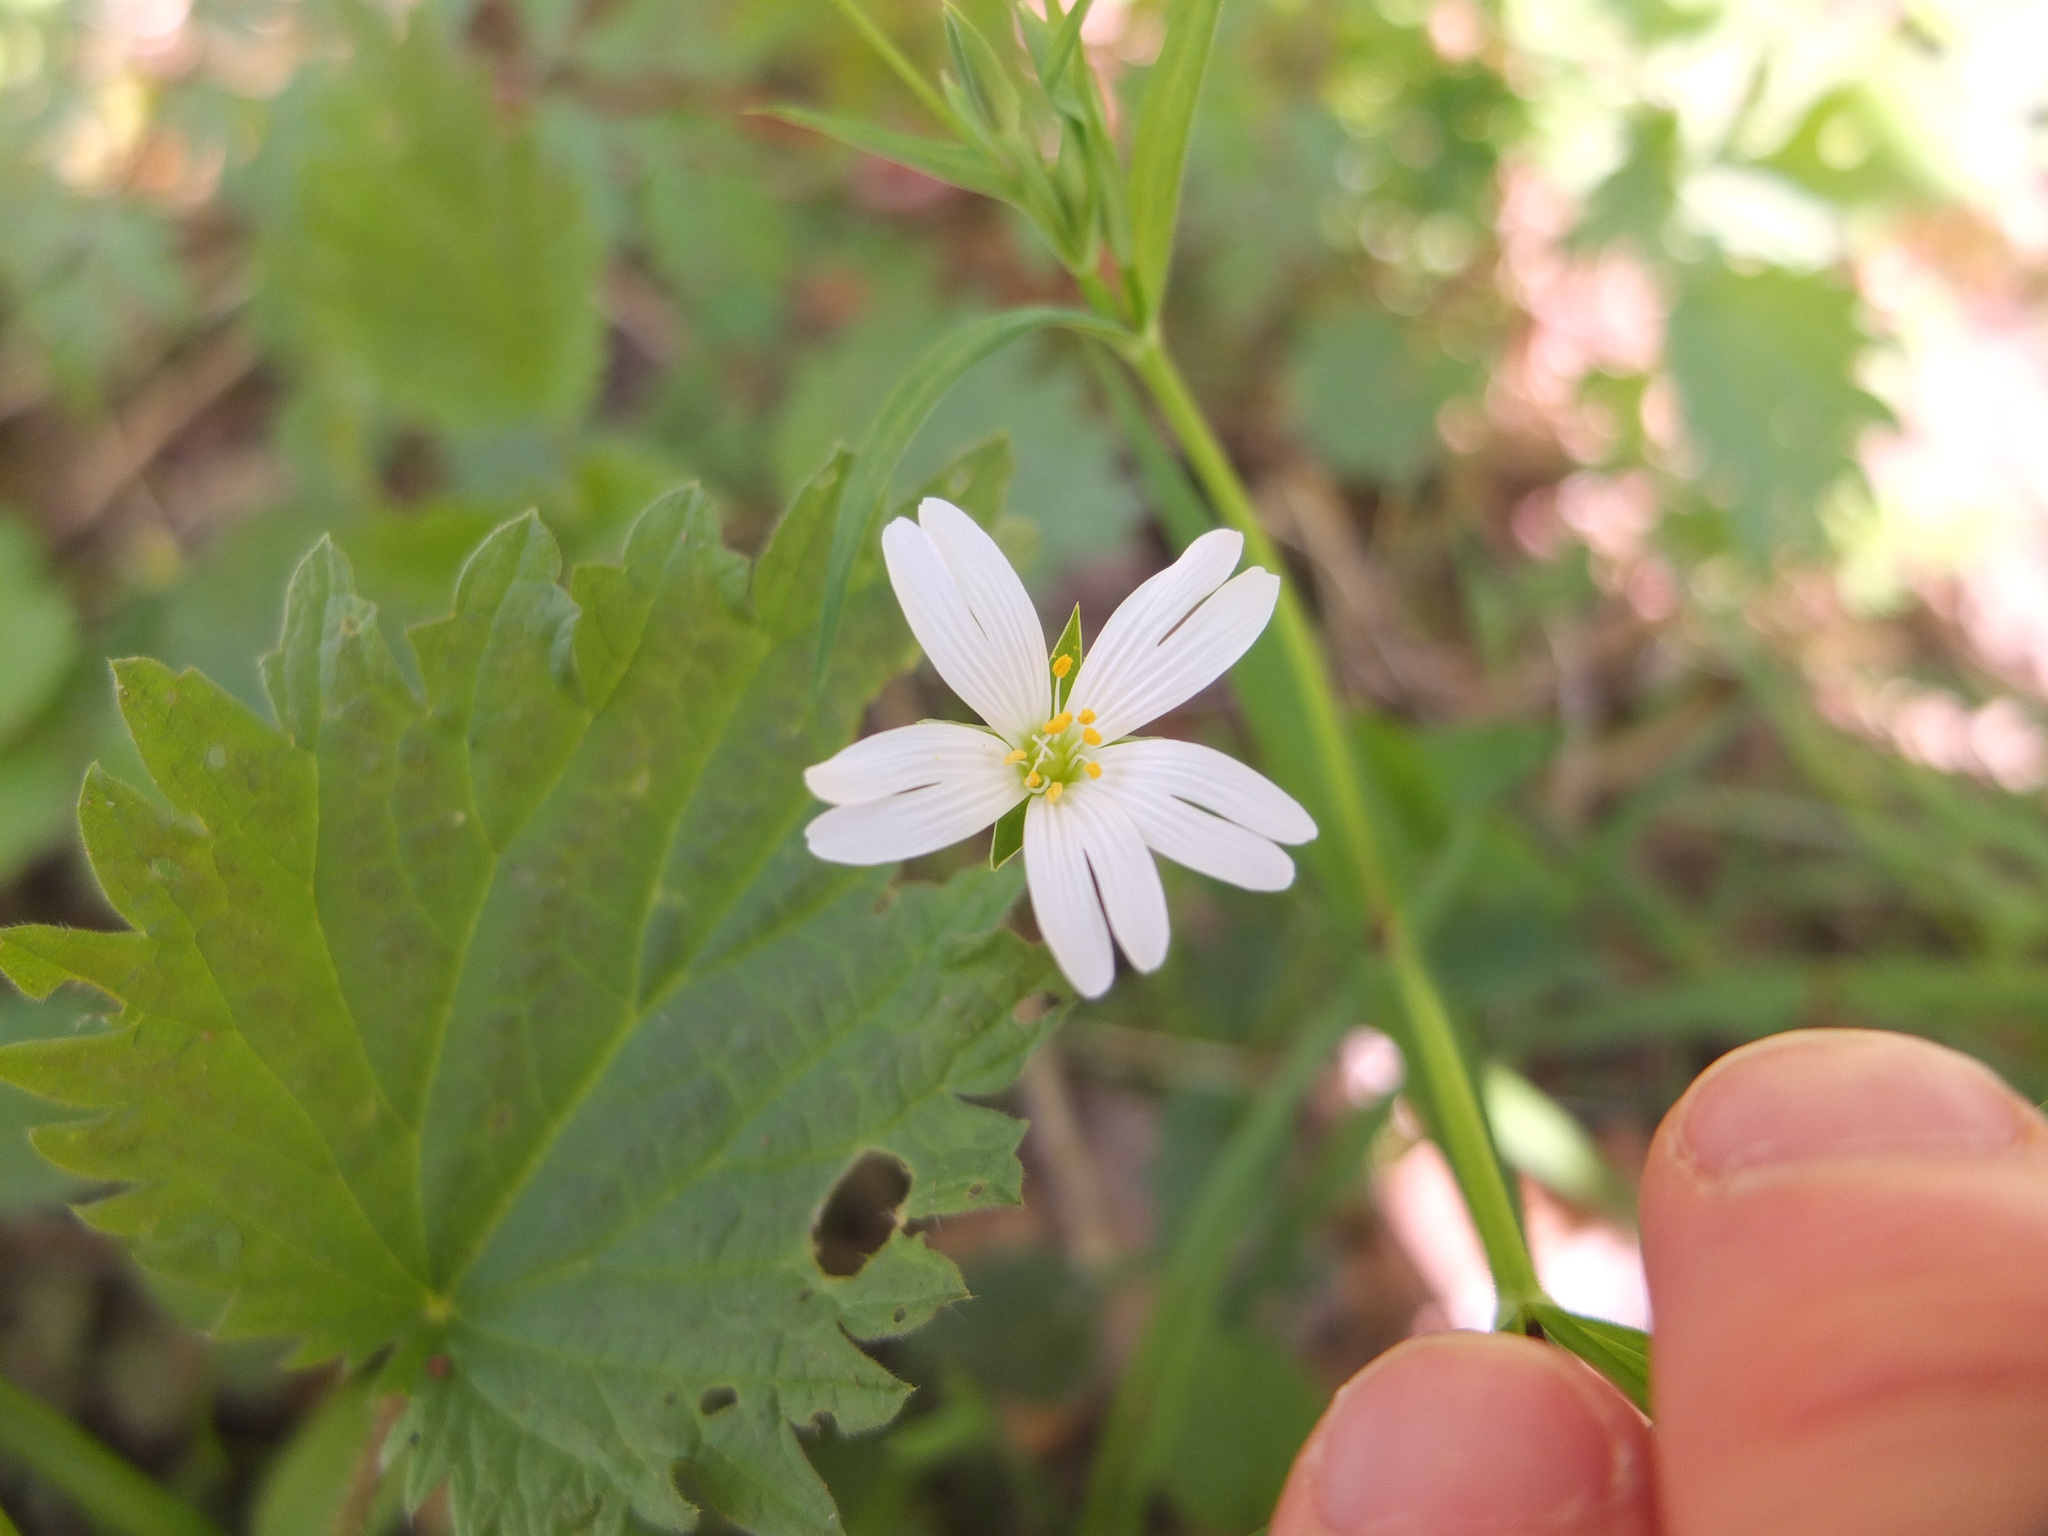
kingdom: Plantae
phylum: Tracheophyta
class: Magnoliopsida
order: Caryophyllales
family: Caryophyllaceae
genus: Rabelera
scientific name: Rabelera holostea
